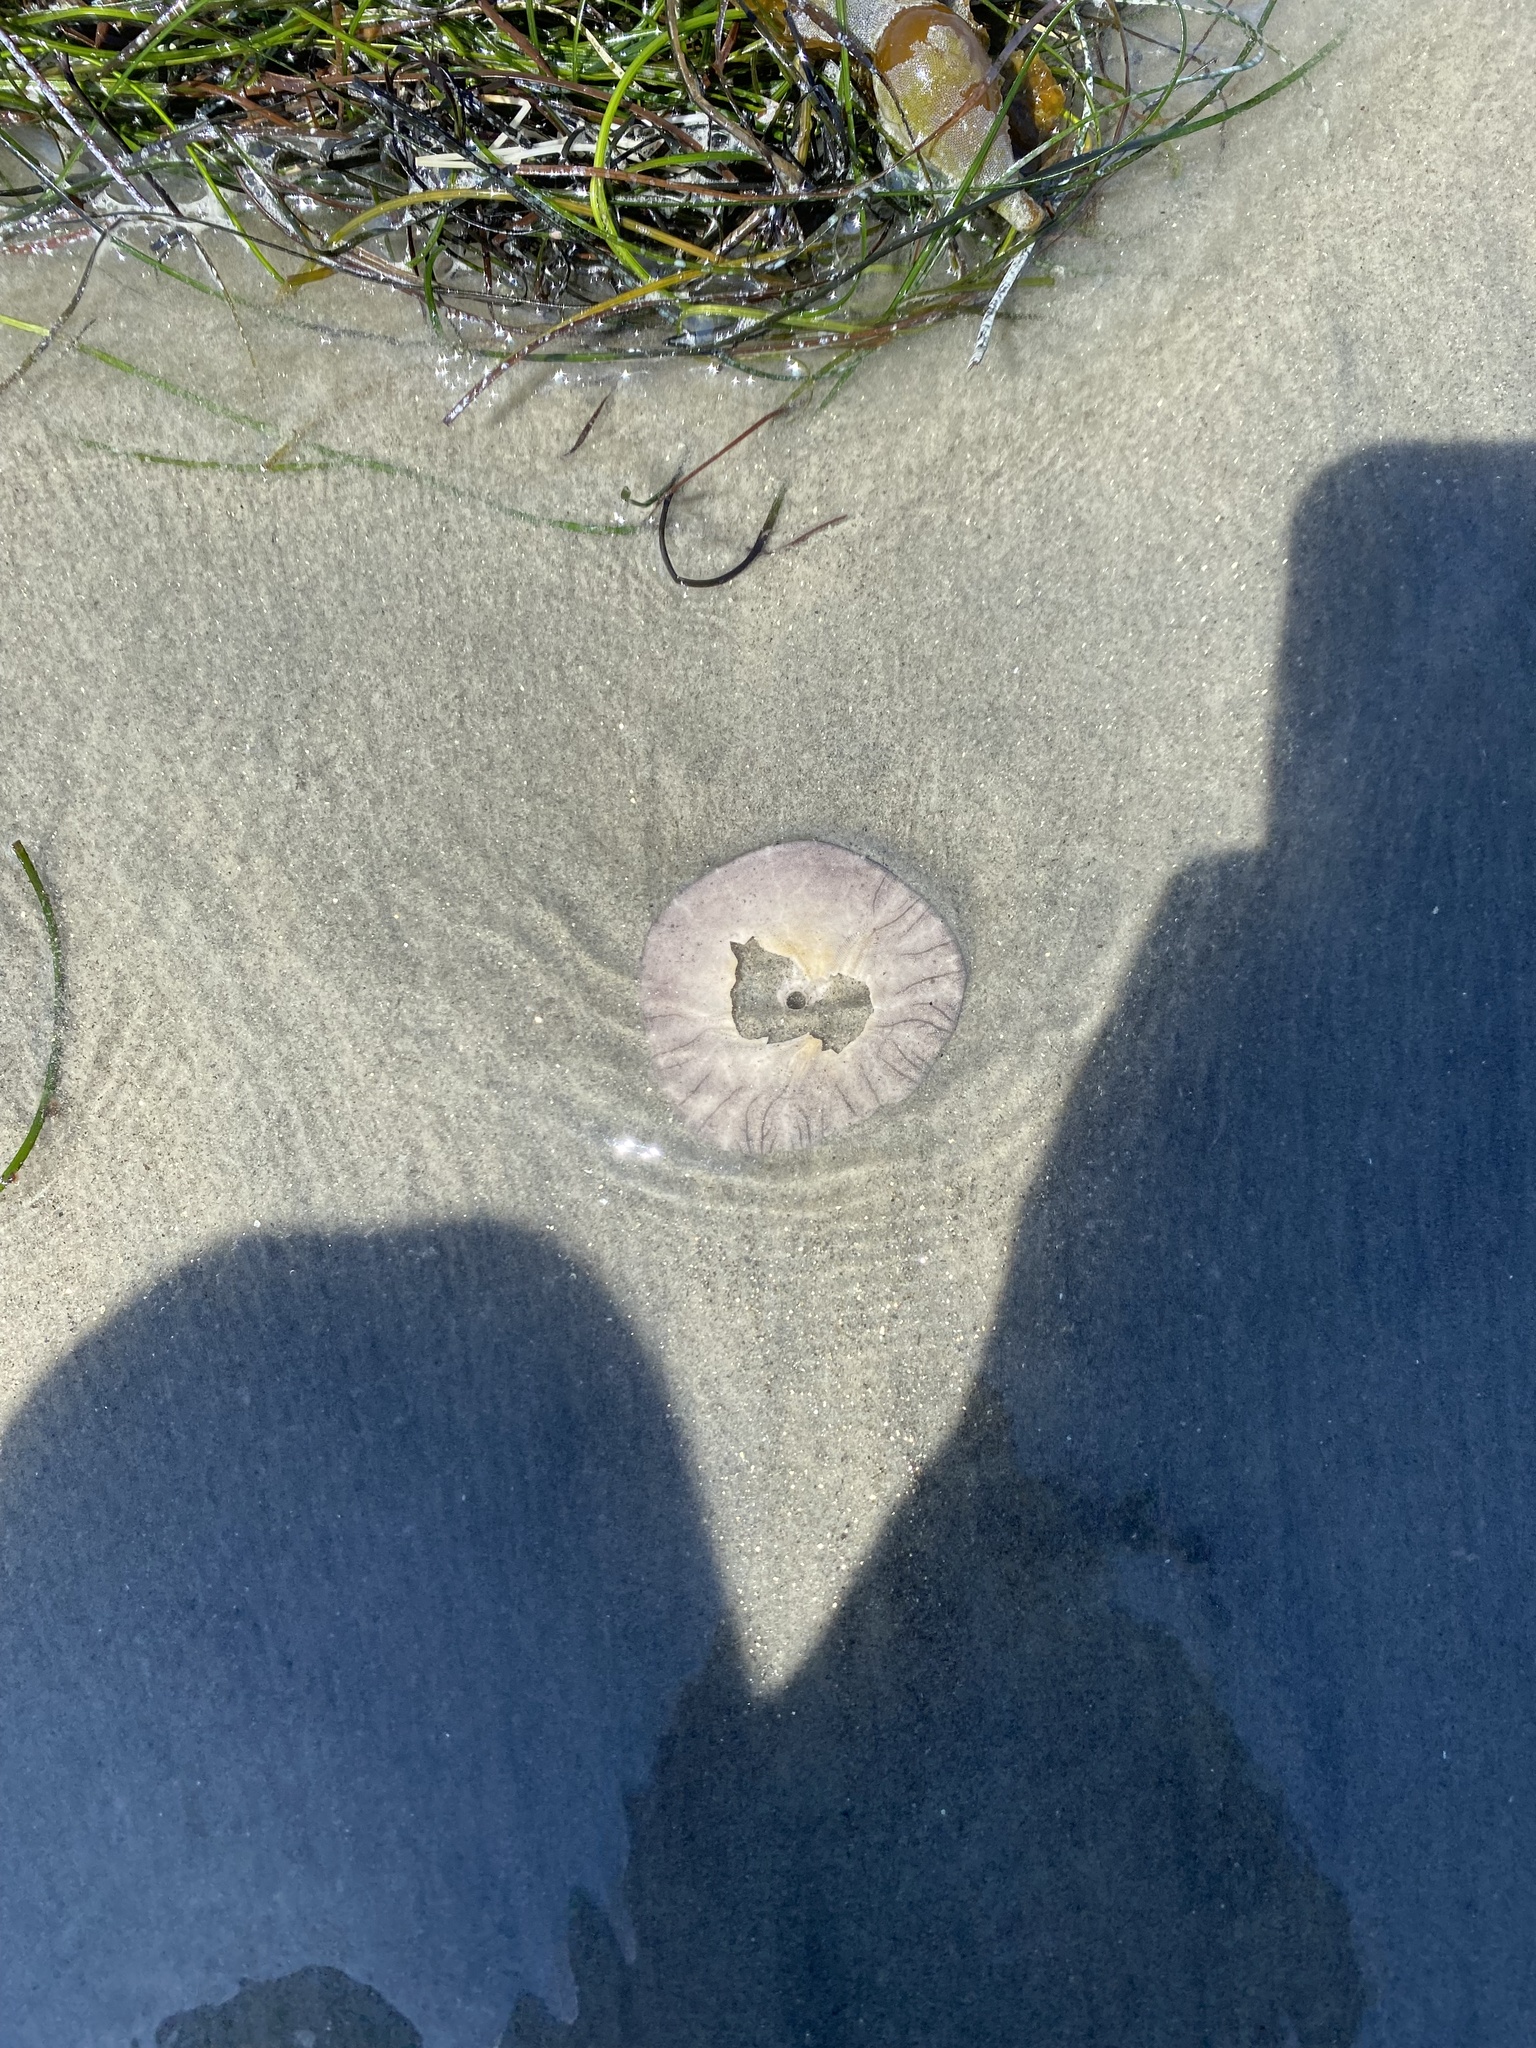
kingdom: Animalia
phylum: Echinodermata
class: Echinoidea
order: Echinolampadacea
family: Dendrasteridae
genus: Dendraster
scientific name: Dendraster excentricus
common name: Eccentric sand dollar sea urchin
